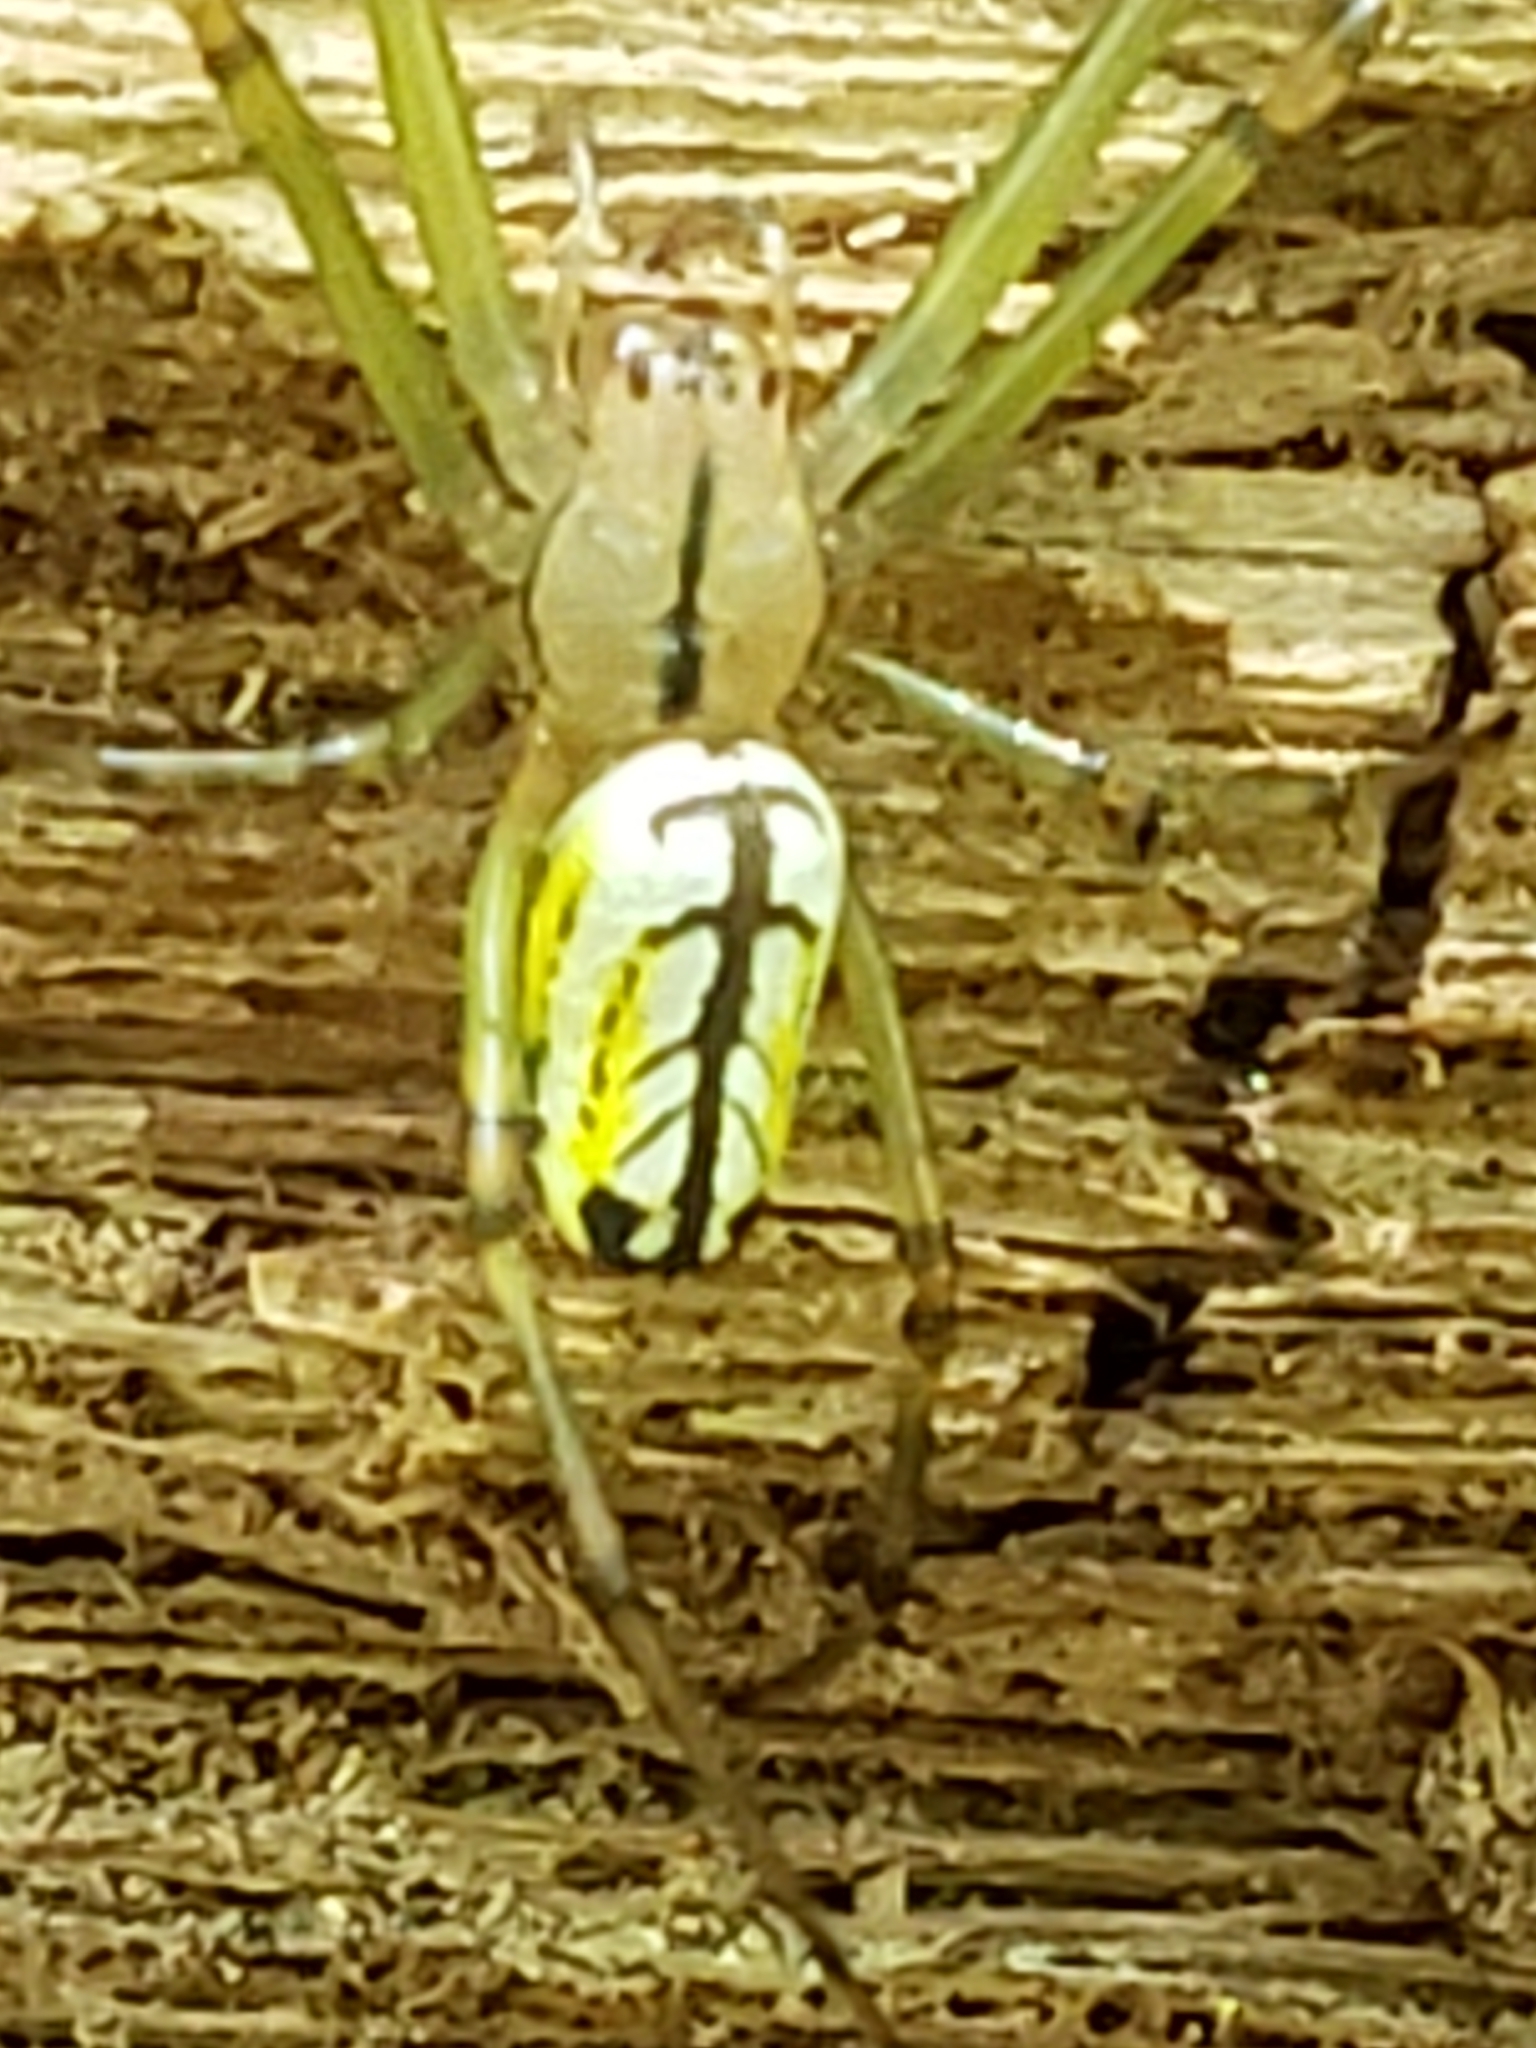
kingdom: Animalia
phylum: Arthropoda
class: Arachnida
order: Araneae
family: Tetragnathidae
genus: Leucauge
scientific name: Leucauge venusta
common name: Longjawed orb weavers
